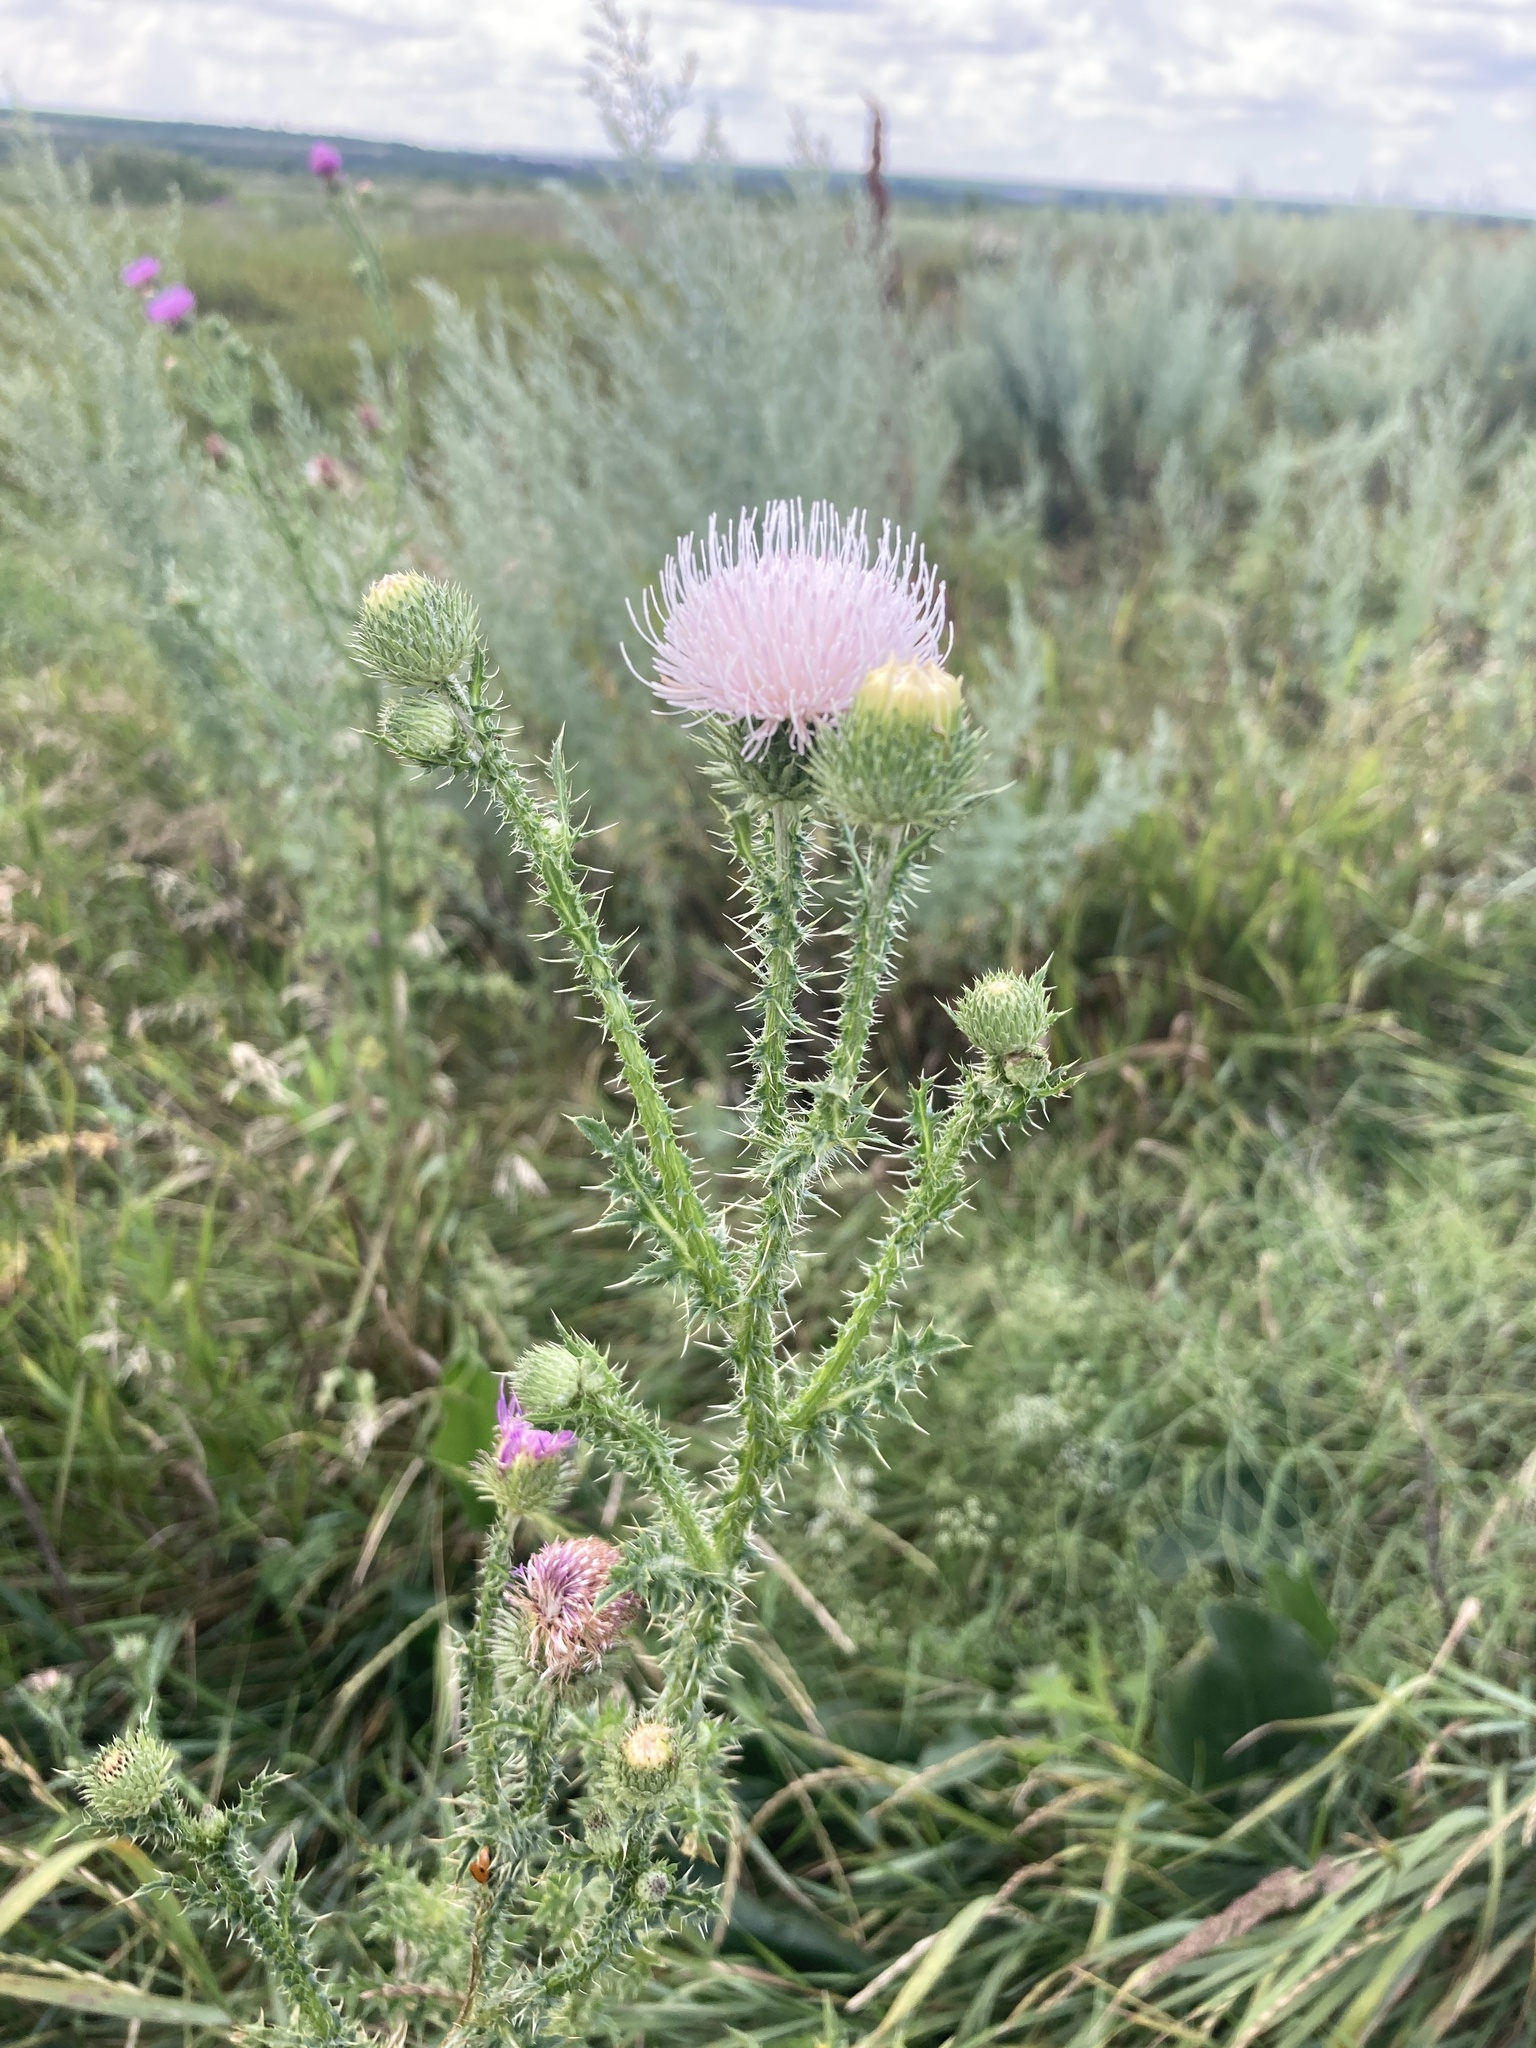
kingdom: Plantae
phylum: Tracheophyta
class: Magnoliopsida
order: Asterales
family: Asteraceae
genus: Carduus
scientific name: Carduus acanthoides
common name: Plumeless thistle
